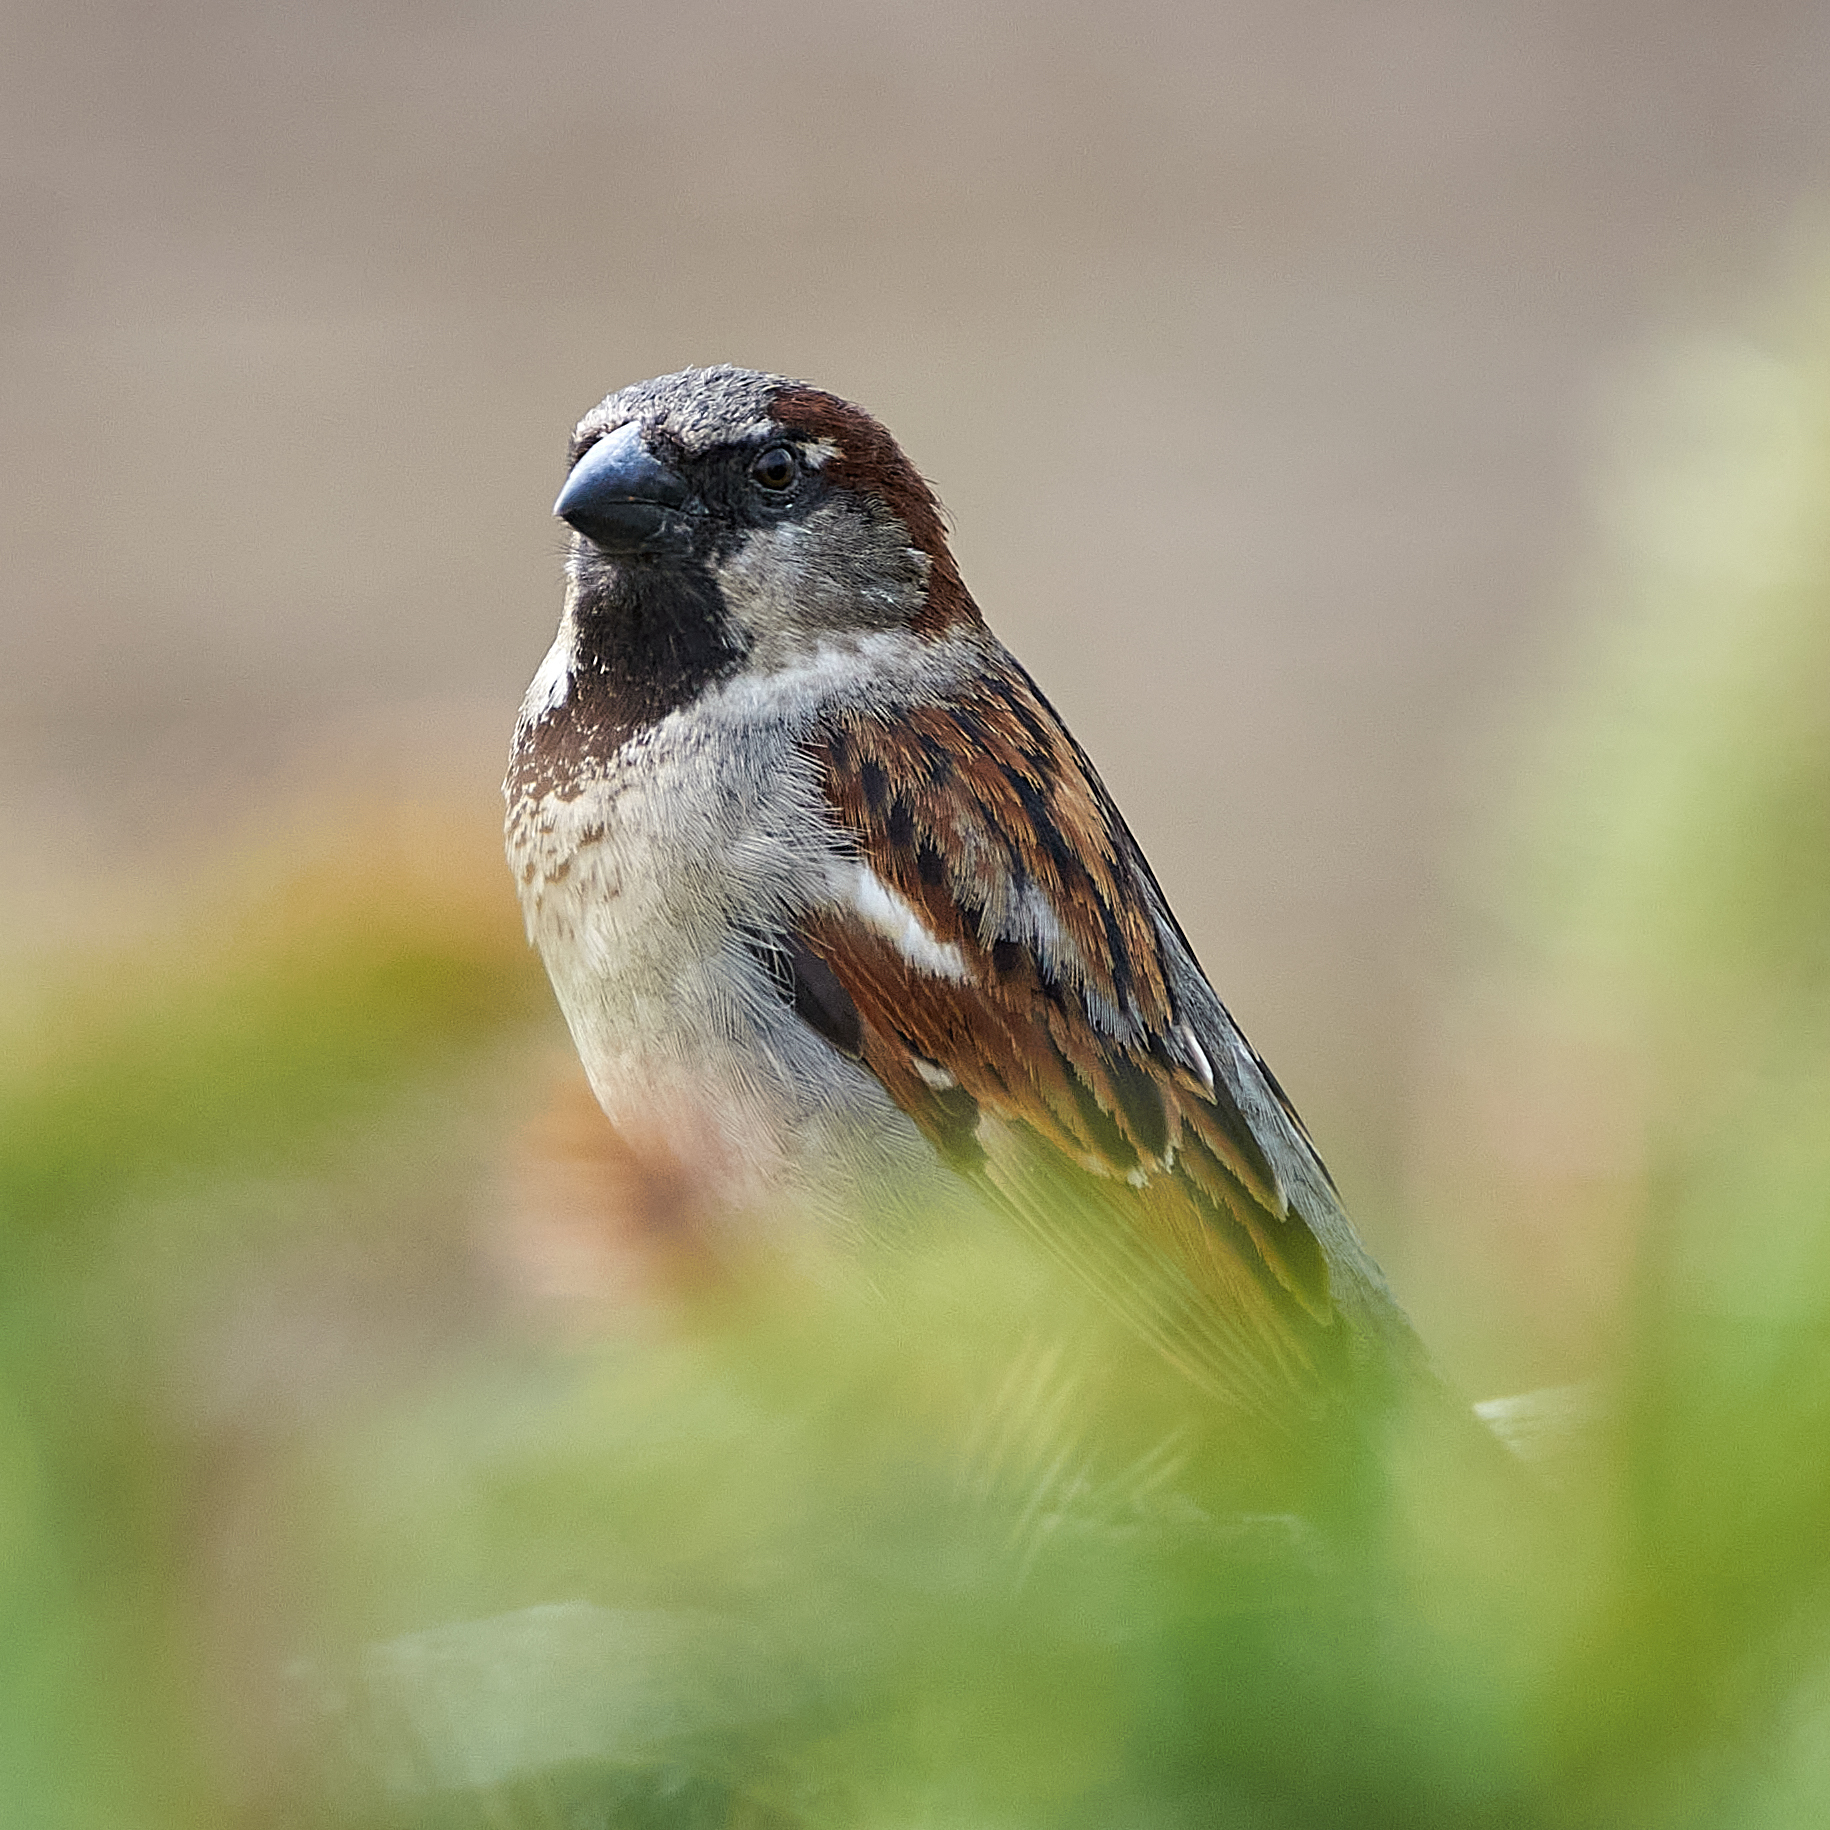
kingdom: Animalia
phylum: Chordata
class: Aves
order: Passeriformes
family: Passeridae
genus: Passer
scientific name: Passer domesticus
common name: House sparrow
